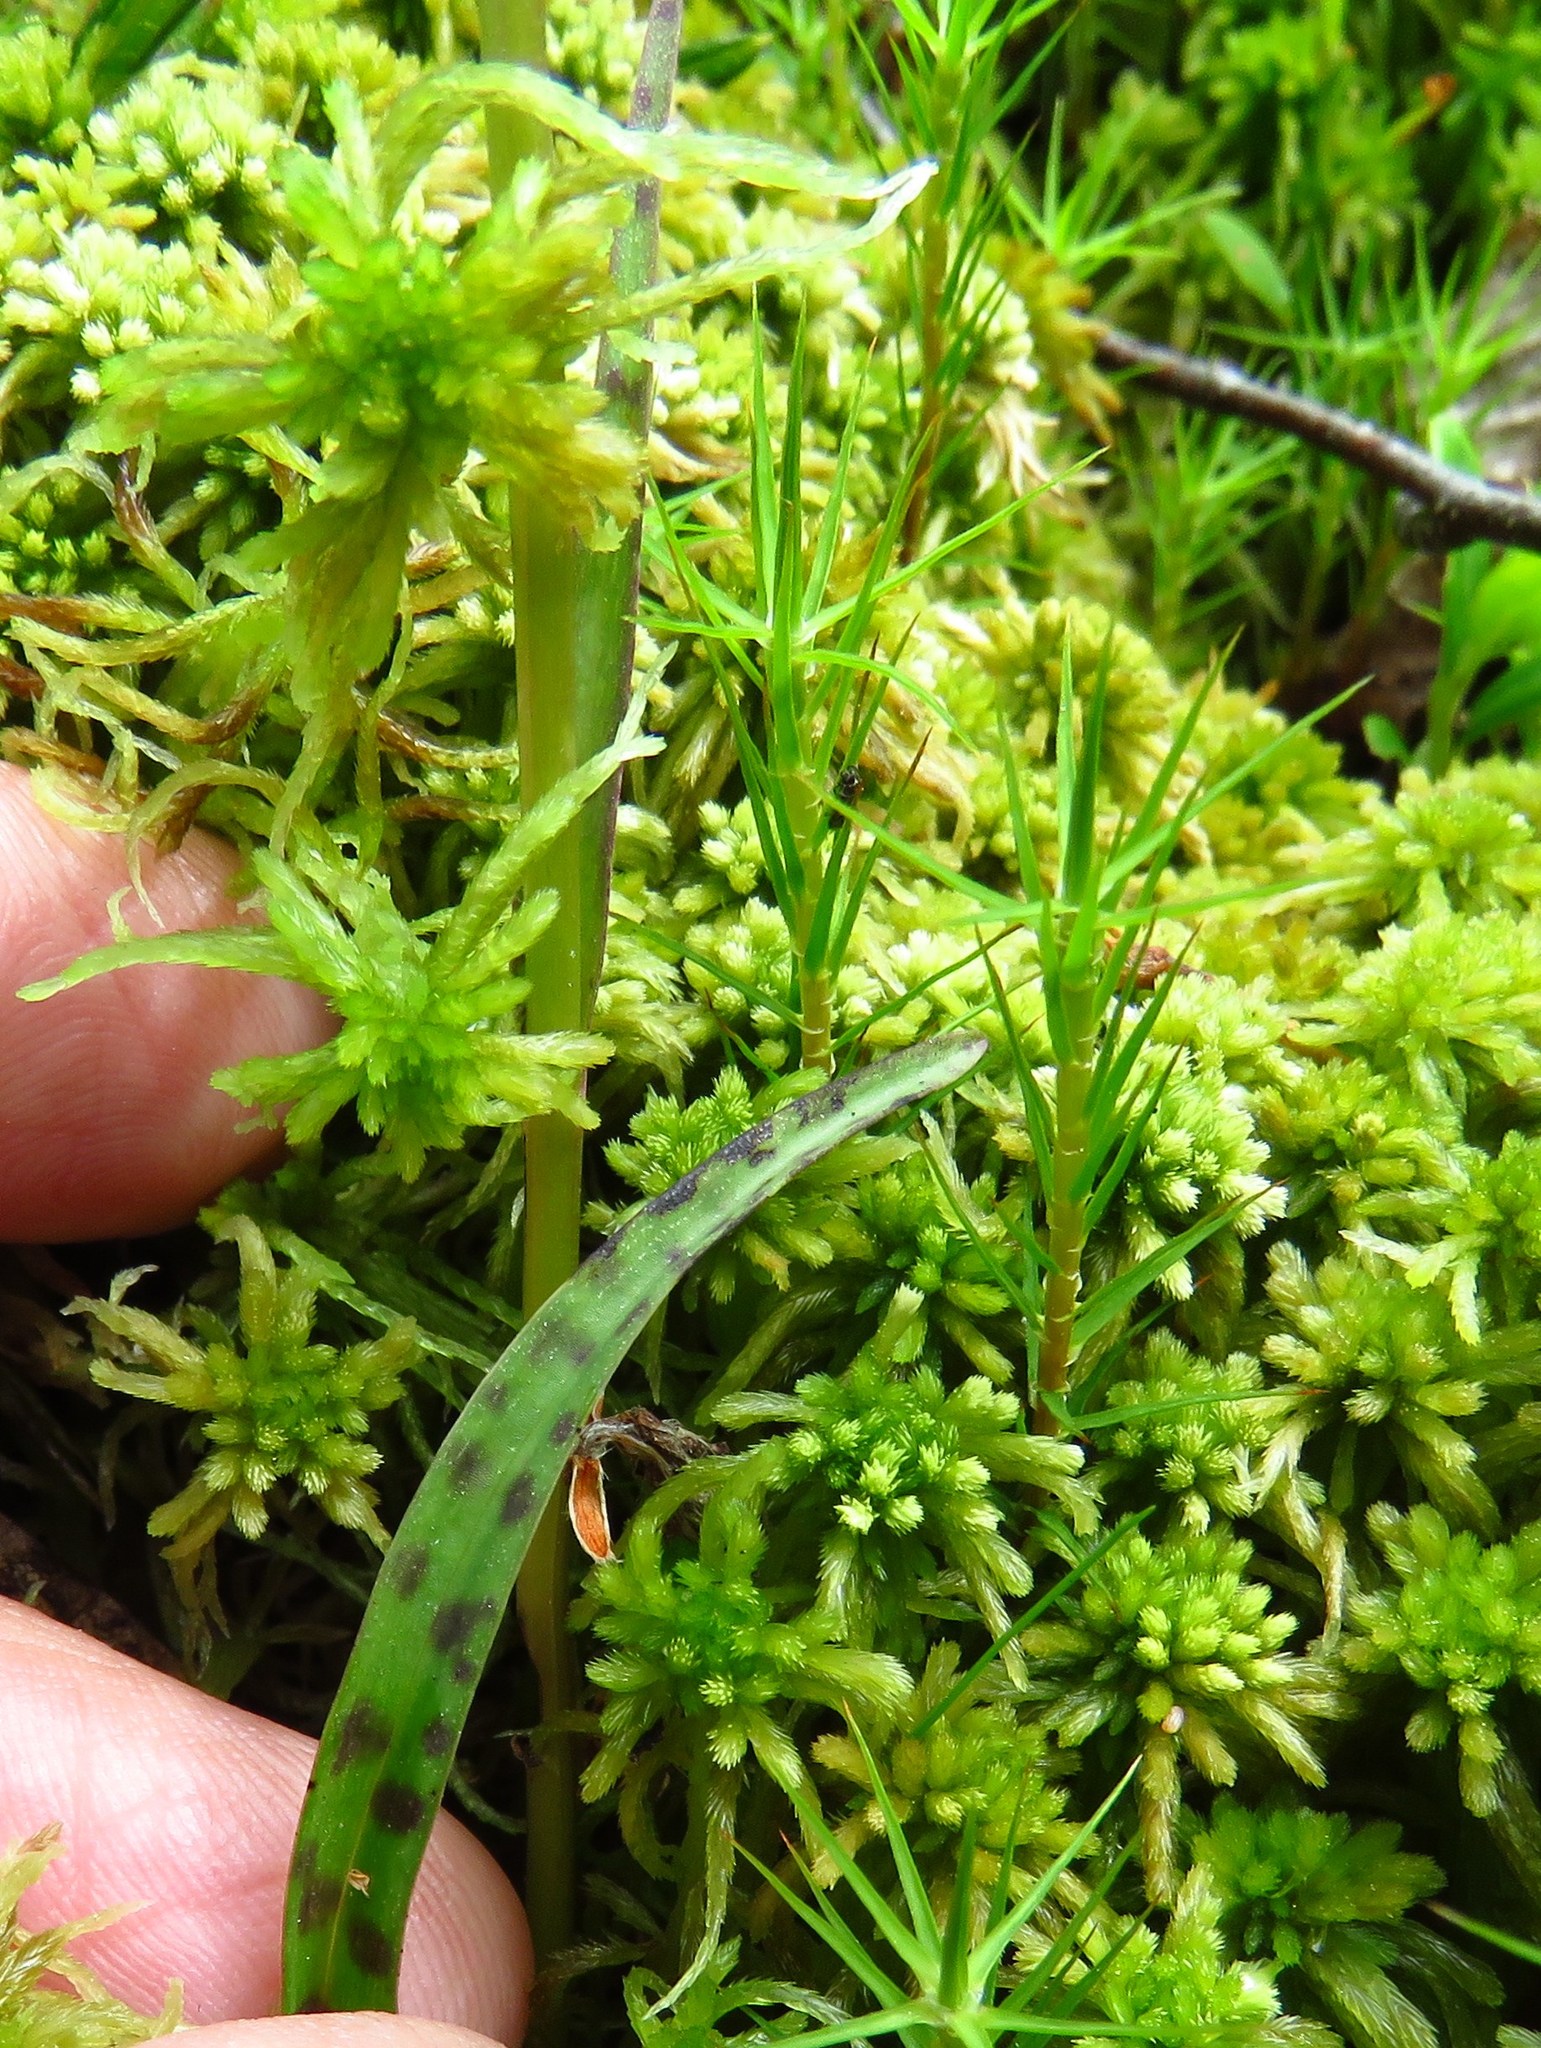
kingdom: Plantae
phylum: Tracheophyta
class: Liliopsida
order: Asparagales
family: Orchidaceae
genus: Dactylorhiza
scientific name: Dactylorhiza maculata
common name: Heath spotted-orchid
